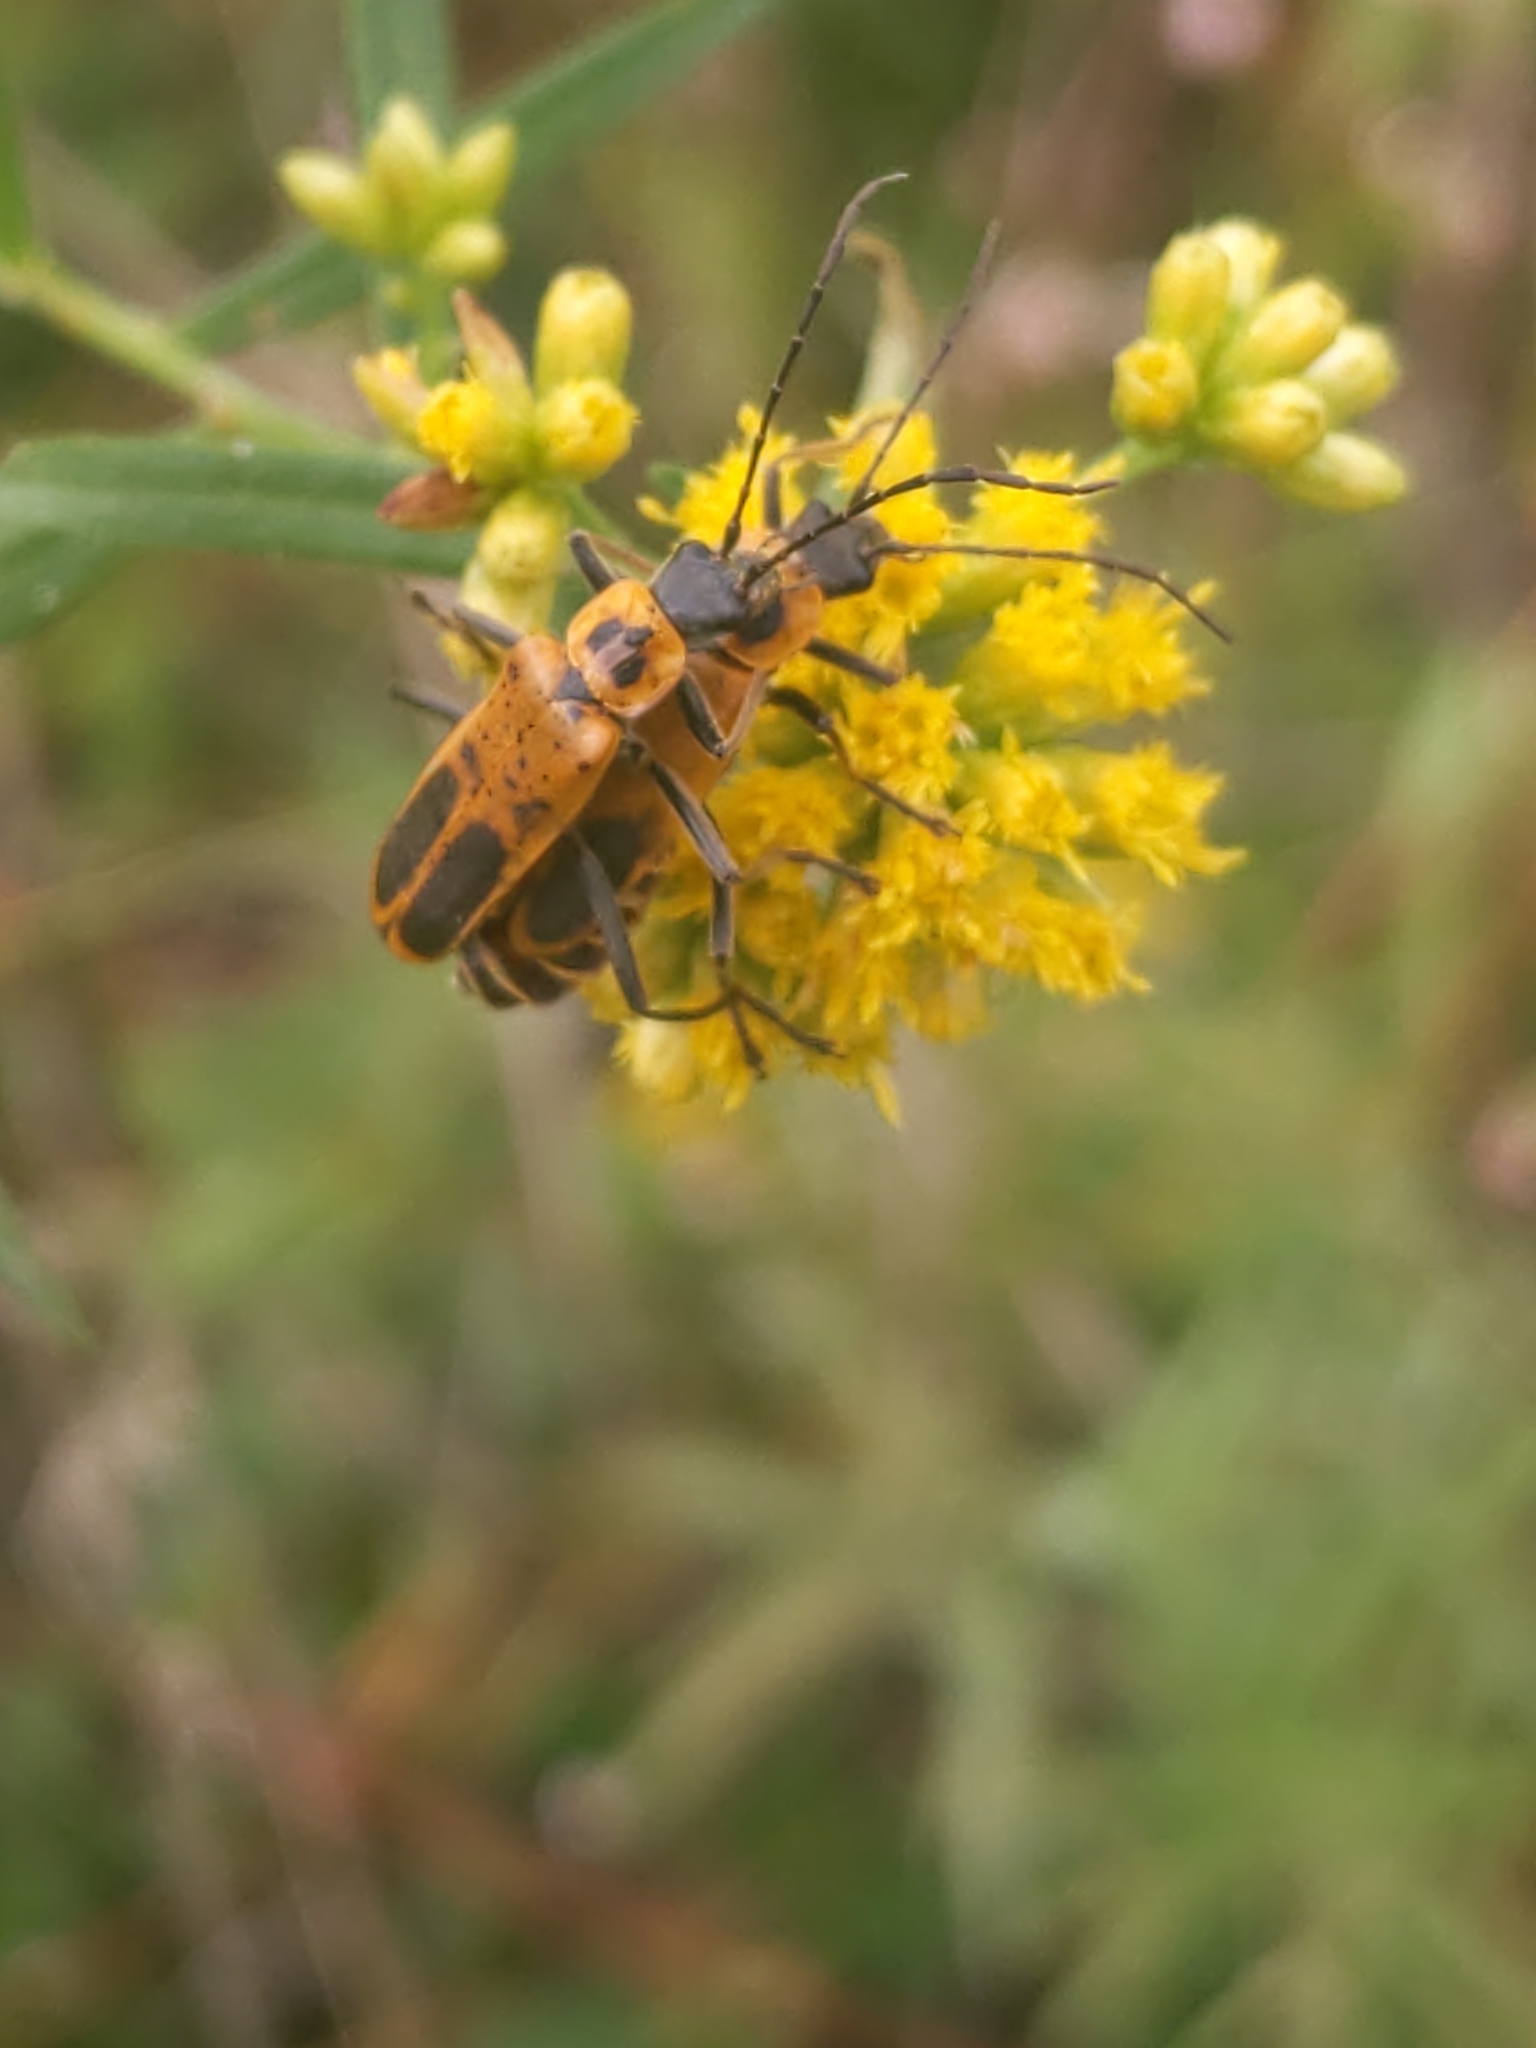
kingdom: Animalia
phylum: Arthropoda
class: Insecta
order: Coleoptera
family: Cantharidae
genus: Chauliognathus
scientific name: Chauliognathus pensylvanicus
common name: Goldenrod soldier beetle
